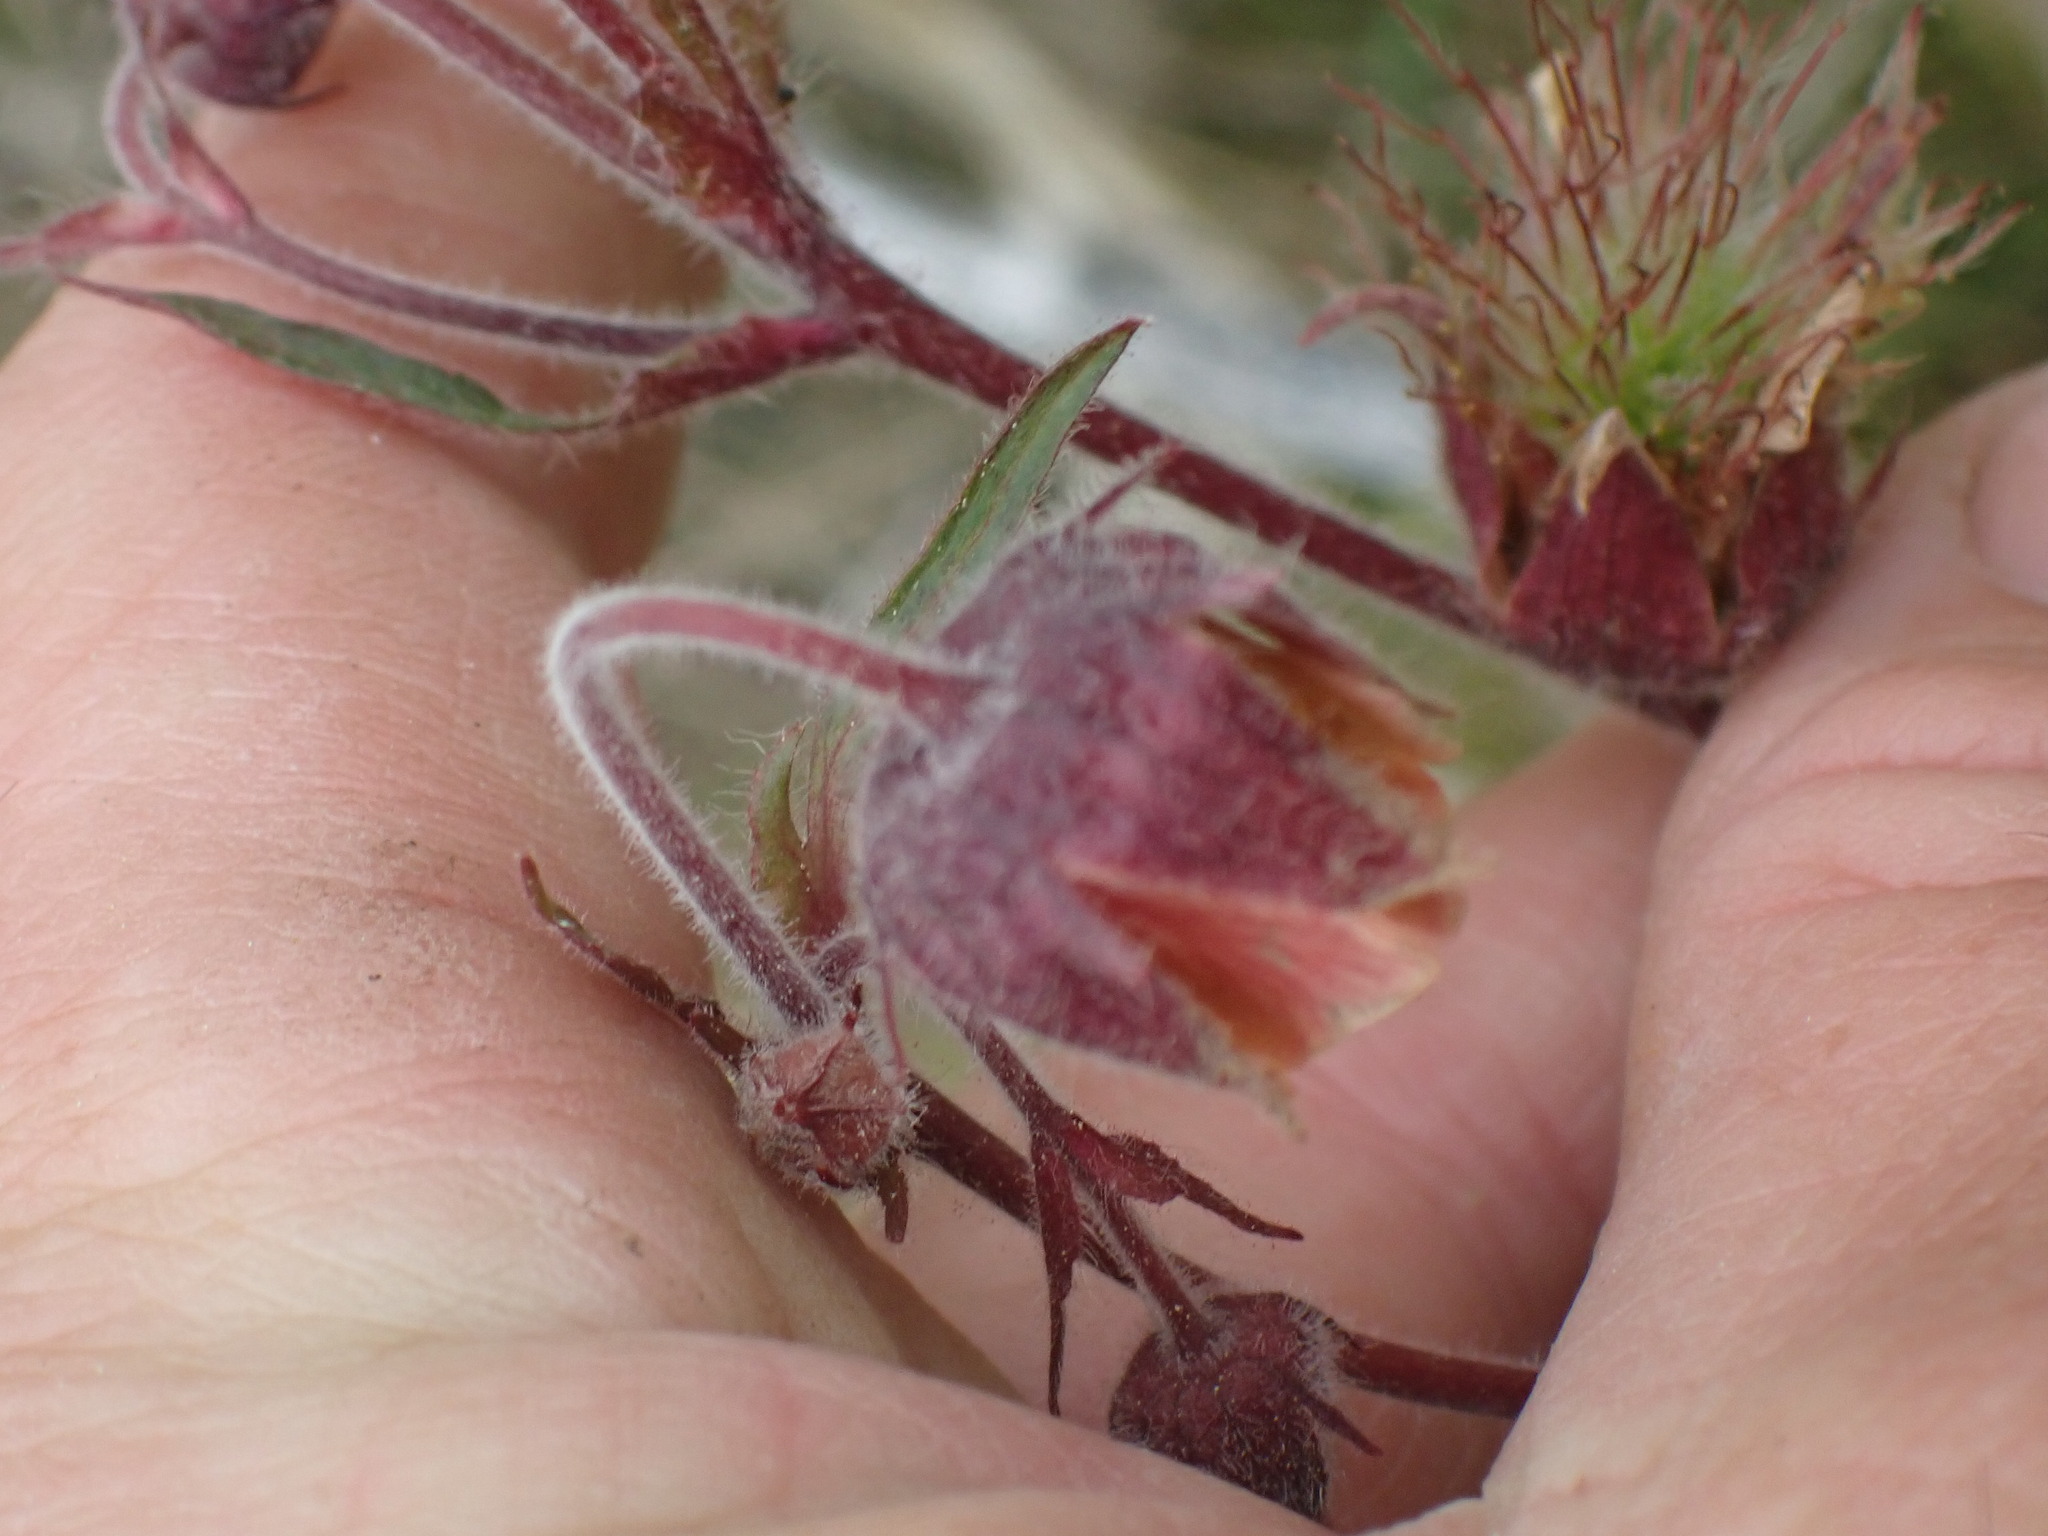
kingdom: Plantae
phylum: Tracheophyta
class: Magnoliopsida
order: Rosales
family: Rosaceae
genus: Geum
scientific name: Geum rivale
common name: Water avens
